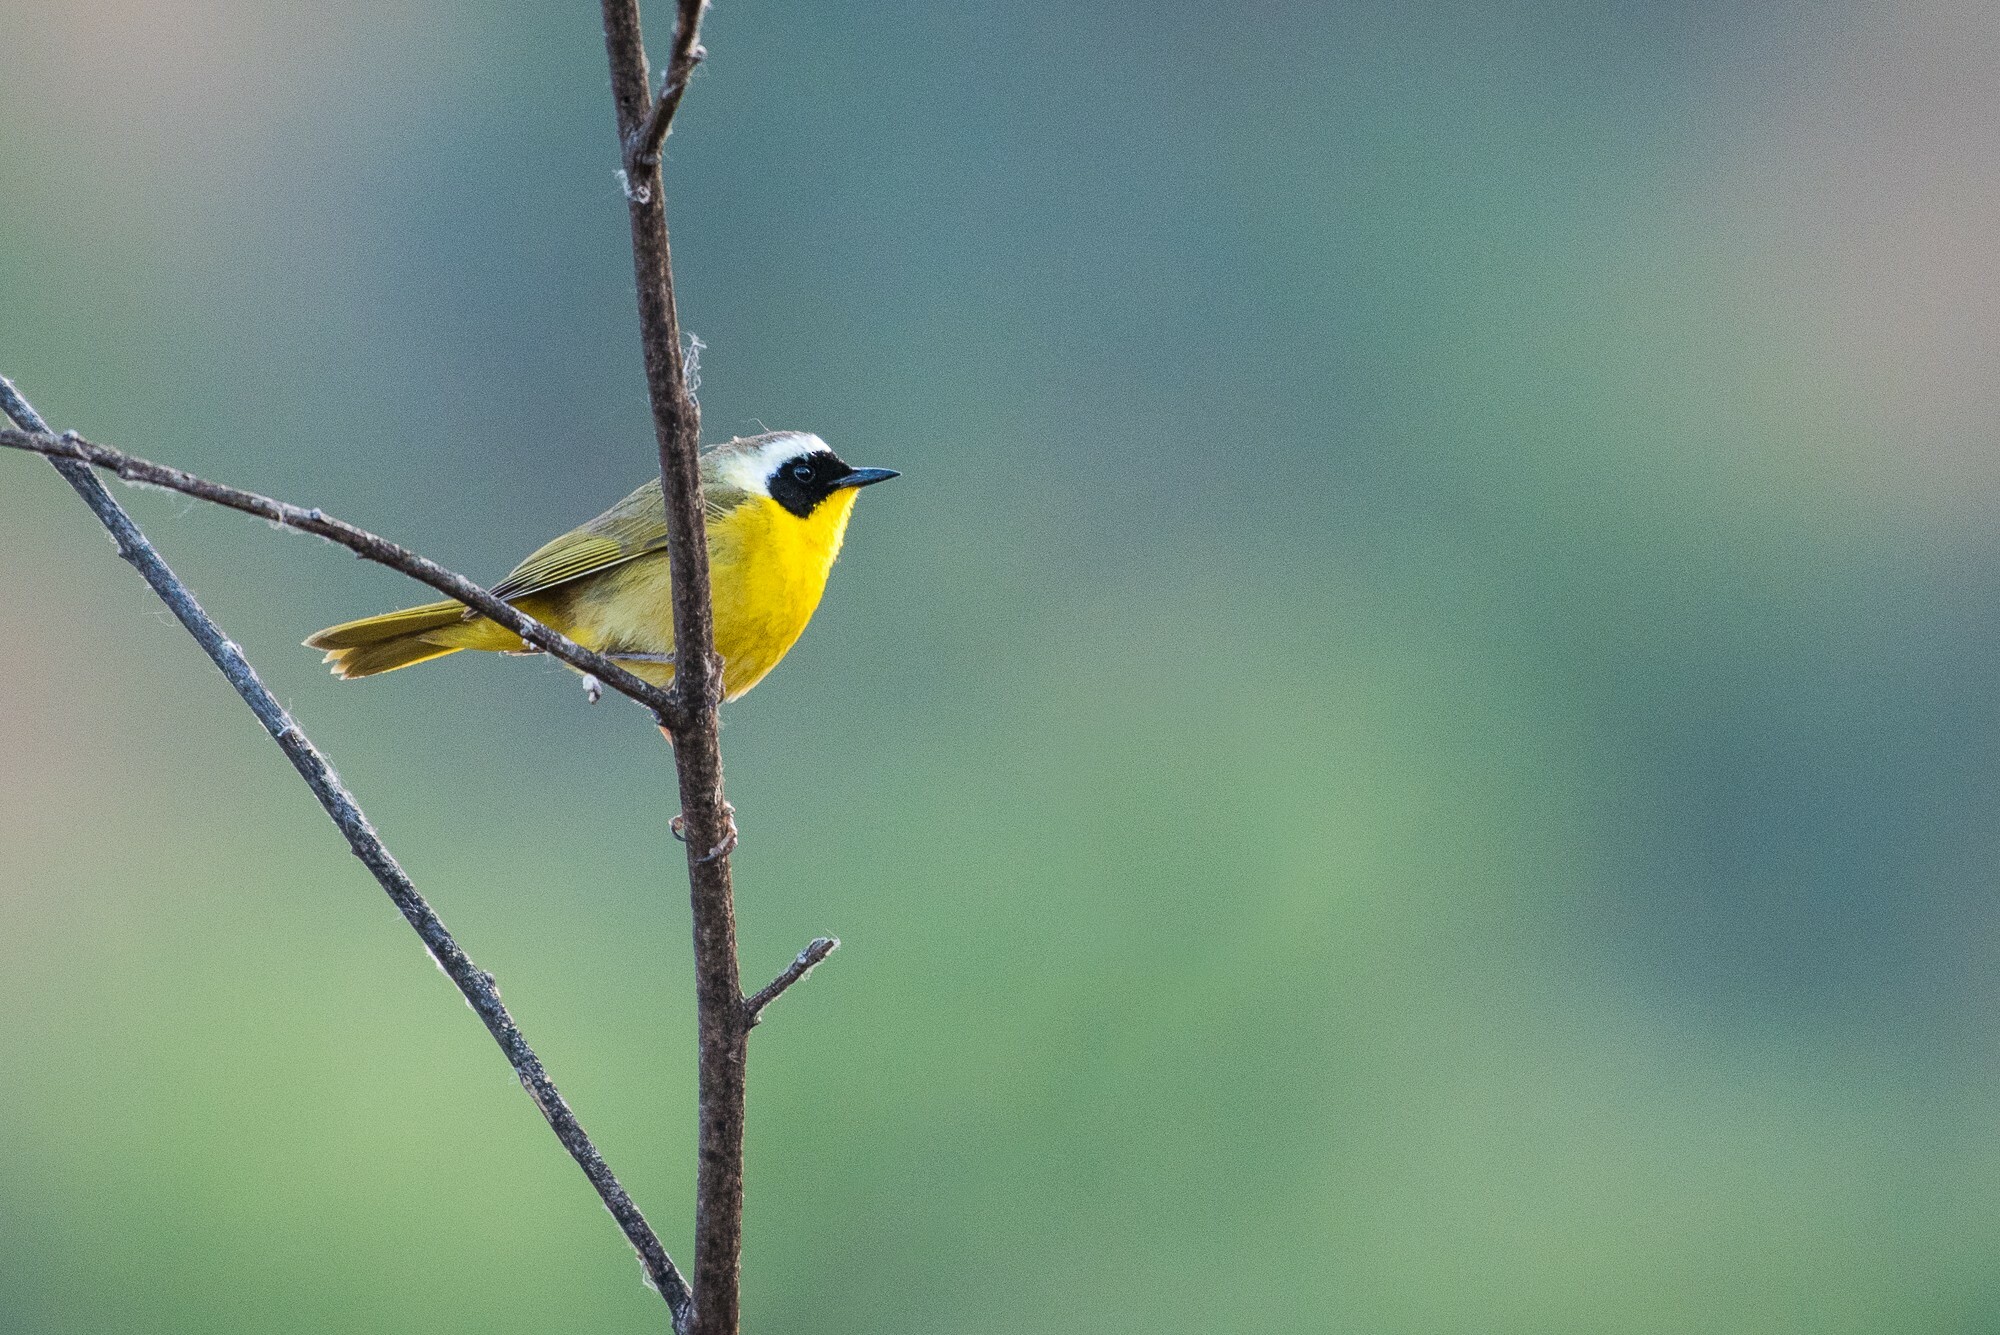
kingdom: Animalia
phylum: Chordata
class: Aves
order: Passeriformes
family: Parulidae
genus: Geothlypis
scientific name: Geothlypis trichas
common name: Common yellowthroat
